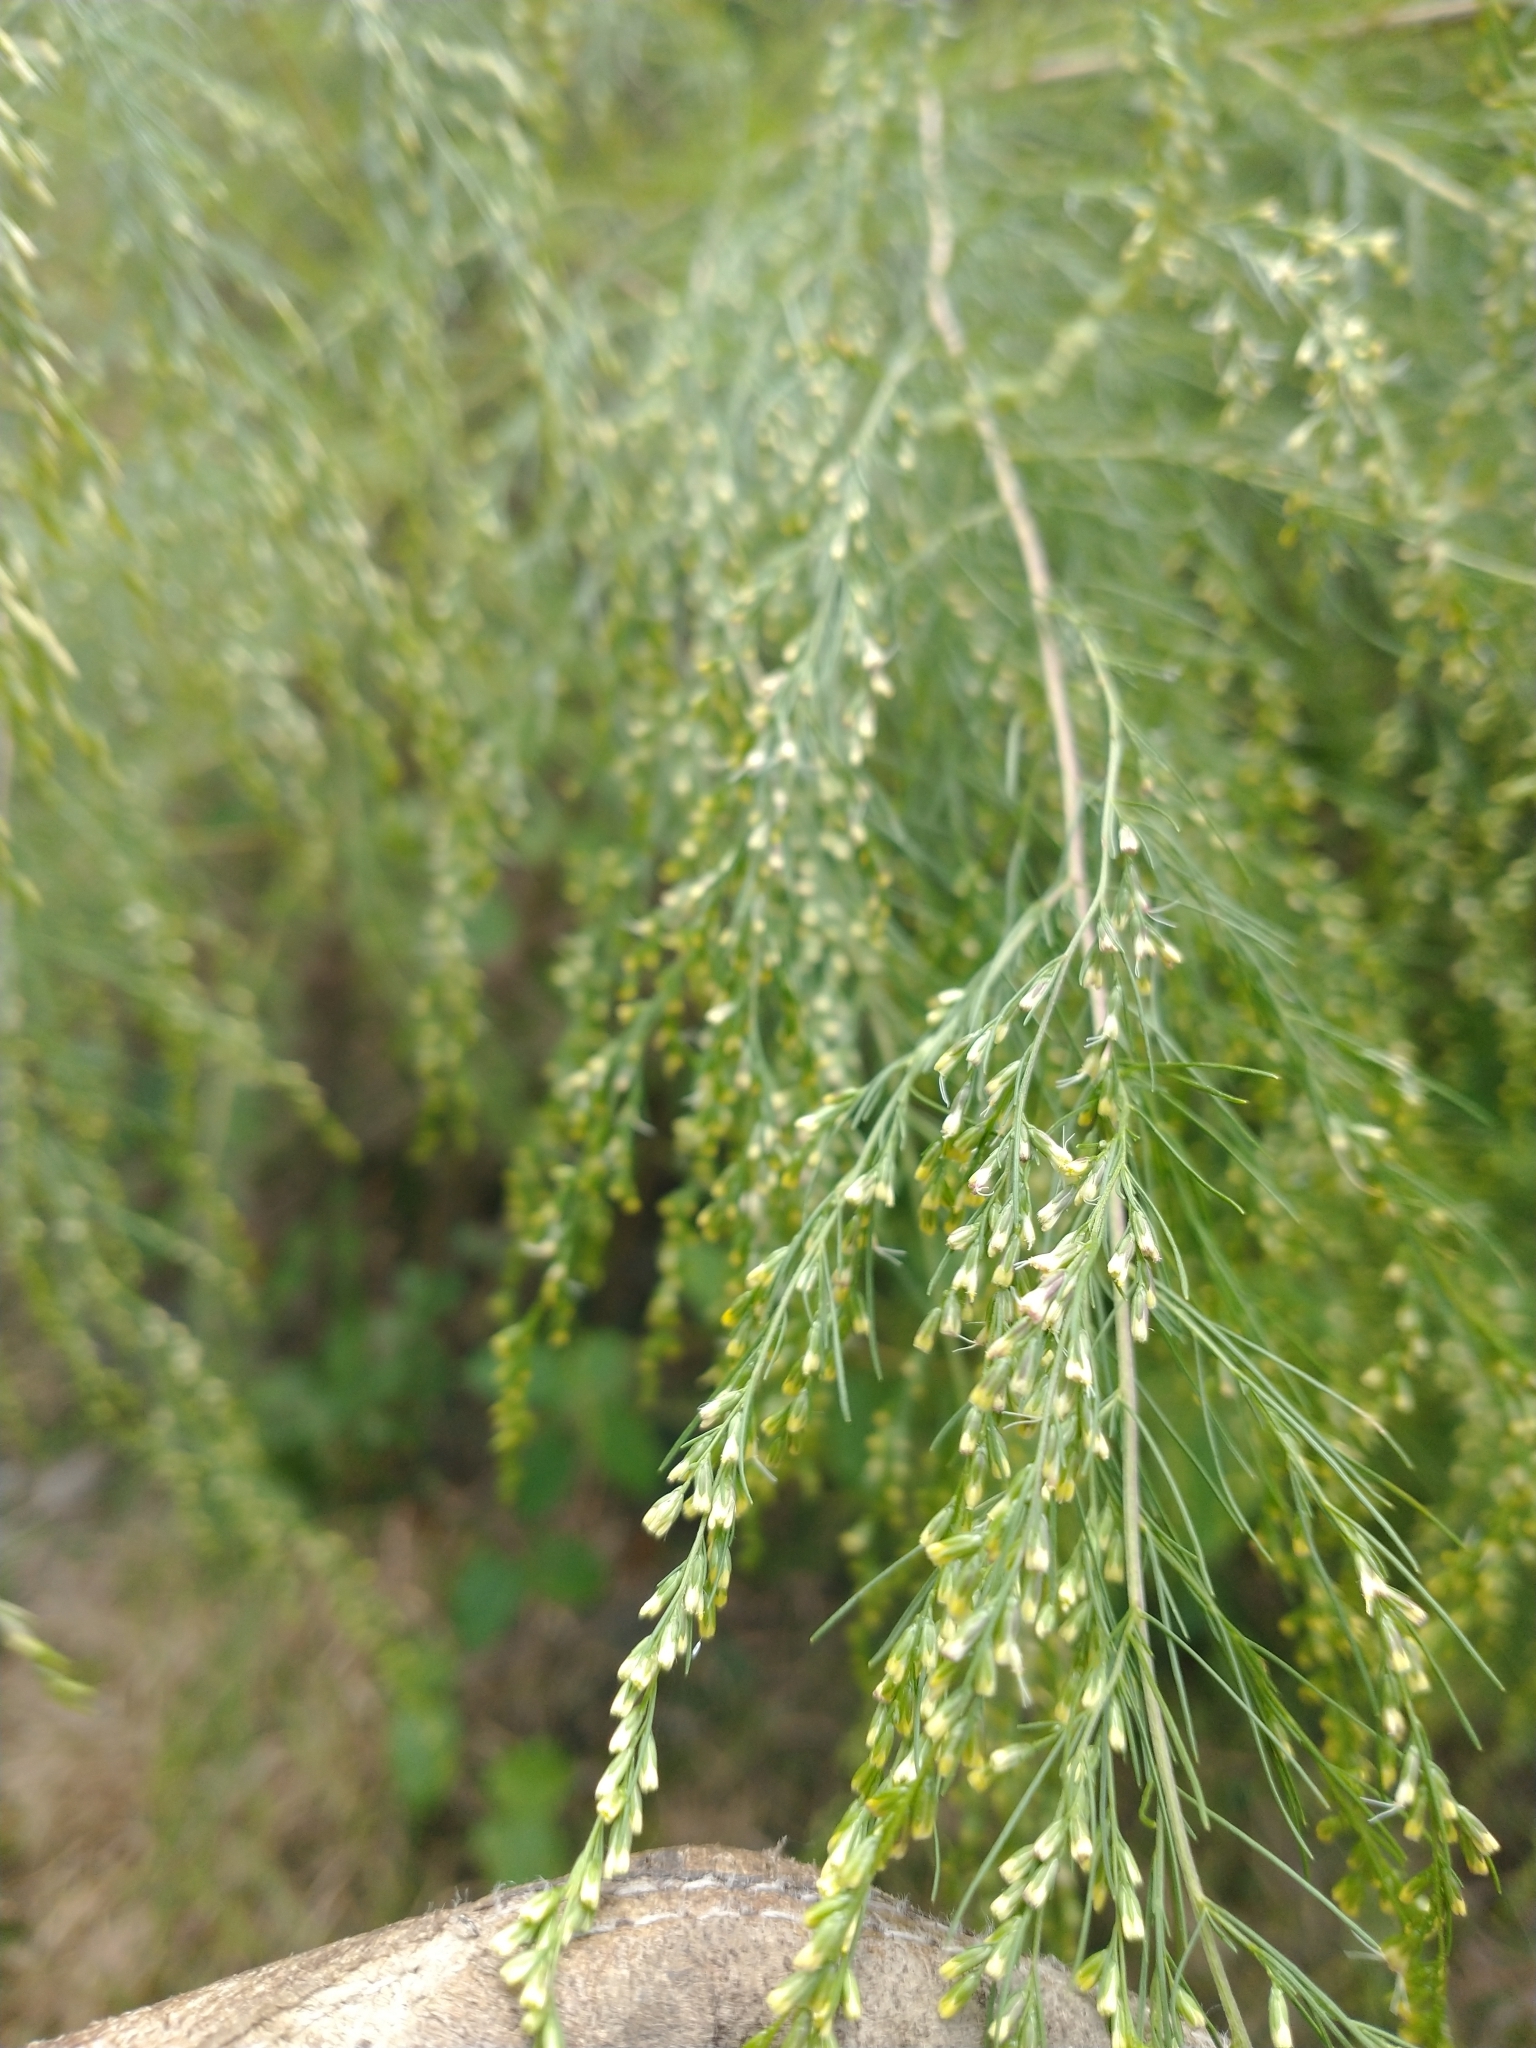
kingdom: Plantae
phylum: Tracheophyta
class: Magnoliopsida
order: Asterales
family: Asteraceae
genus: Eupatorium
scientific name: Eupatorium capillifolium
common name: Dog-fennel
